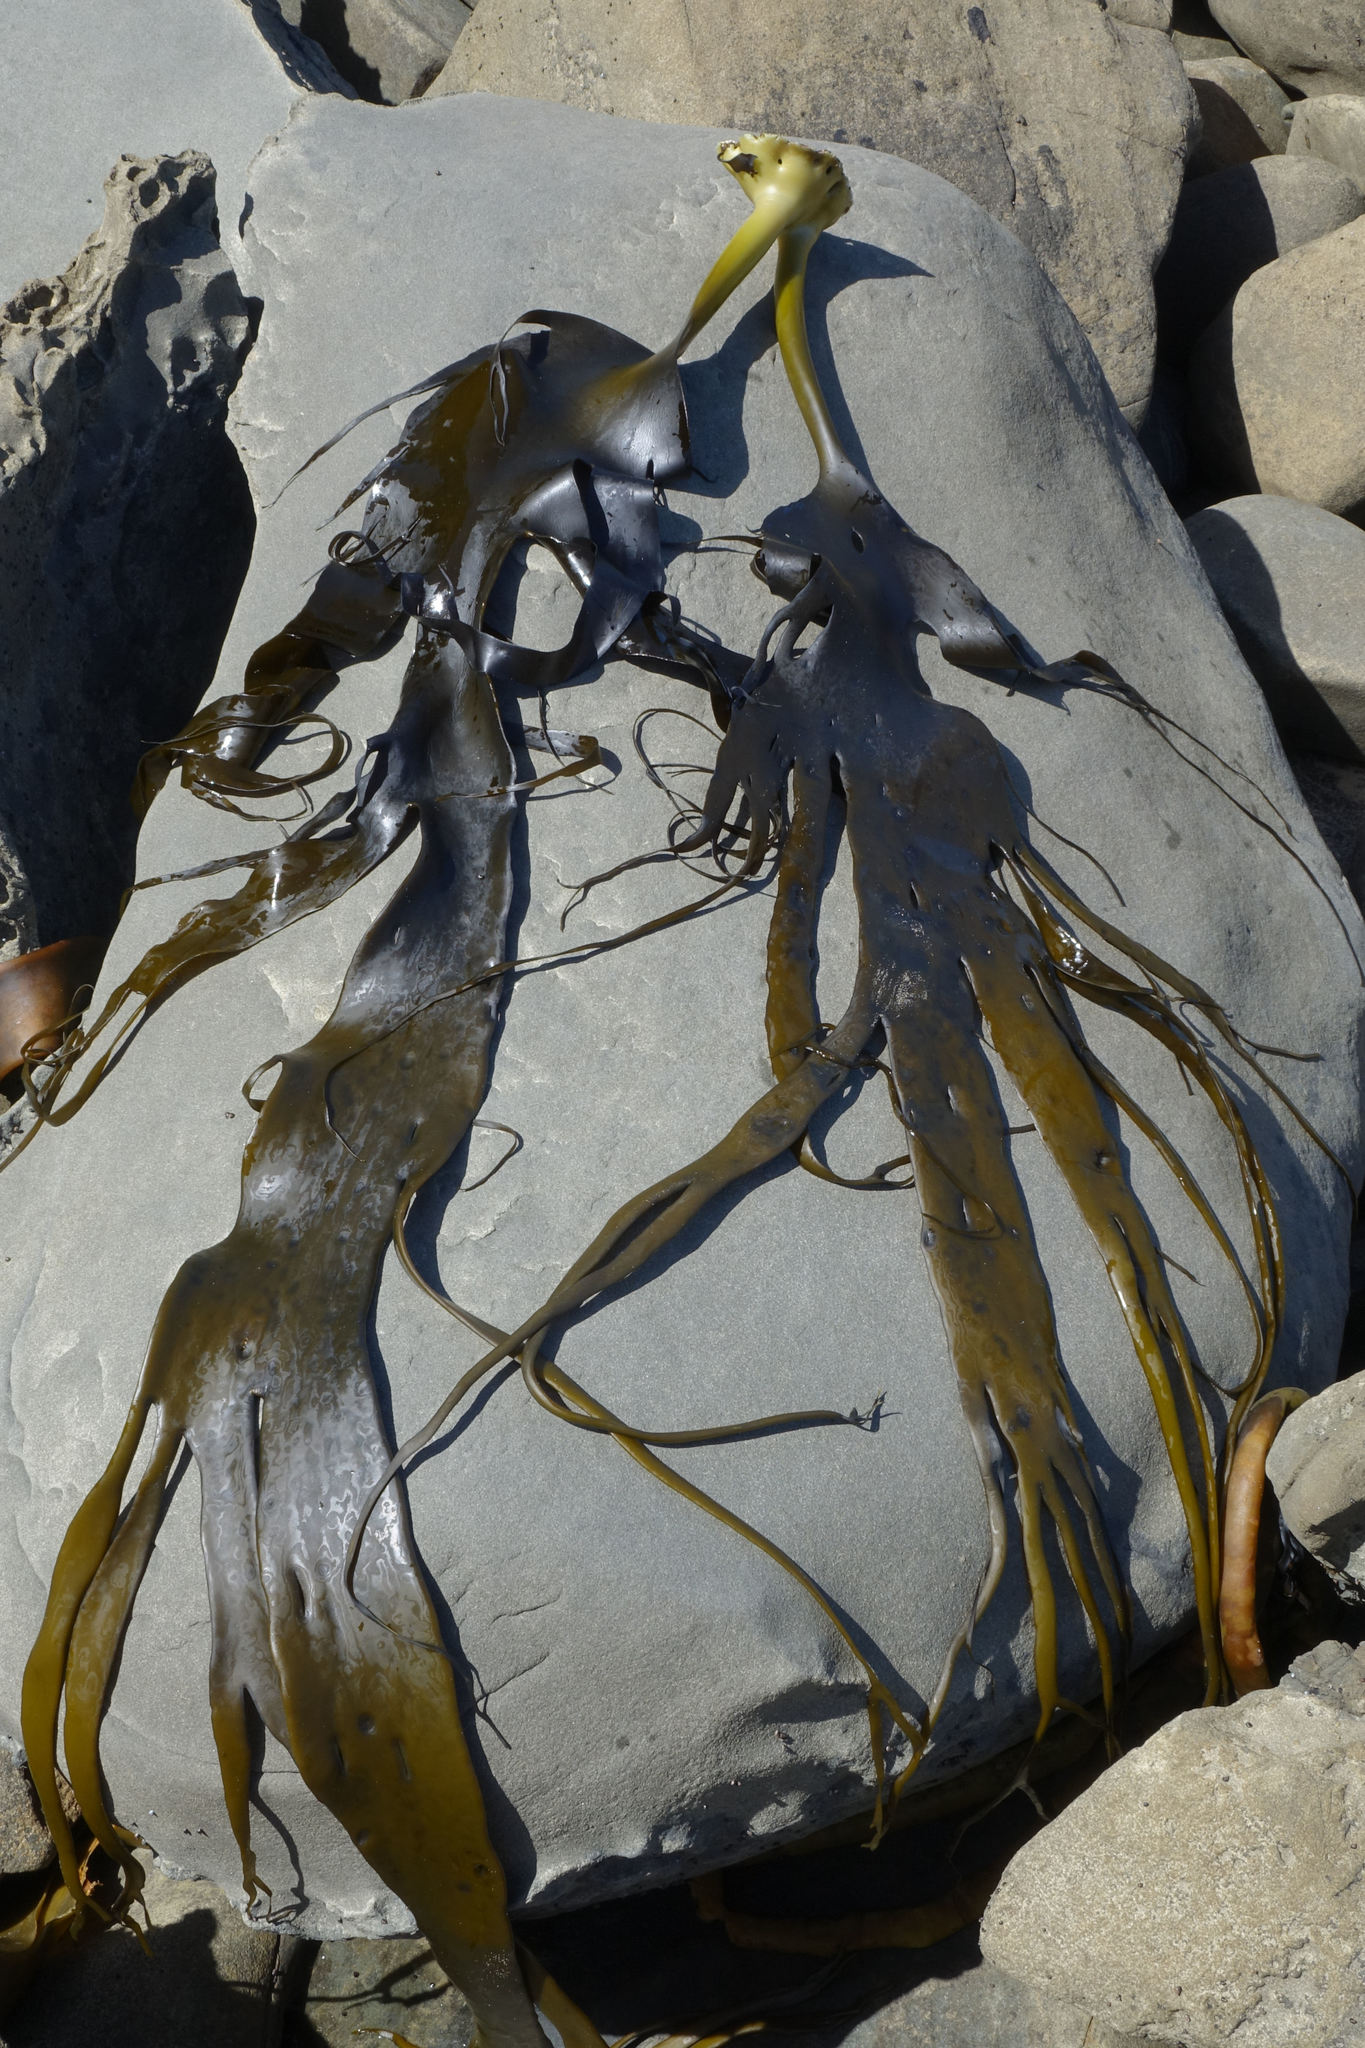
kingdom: Chromista
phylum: Ochrophyta
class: Phaeophyceae
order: Fucales
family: Durvillaeaceae
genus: Durvillaea
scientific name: Durvillaea antarctica
